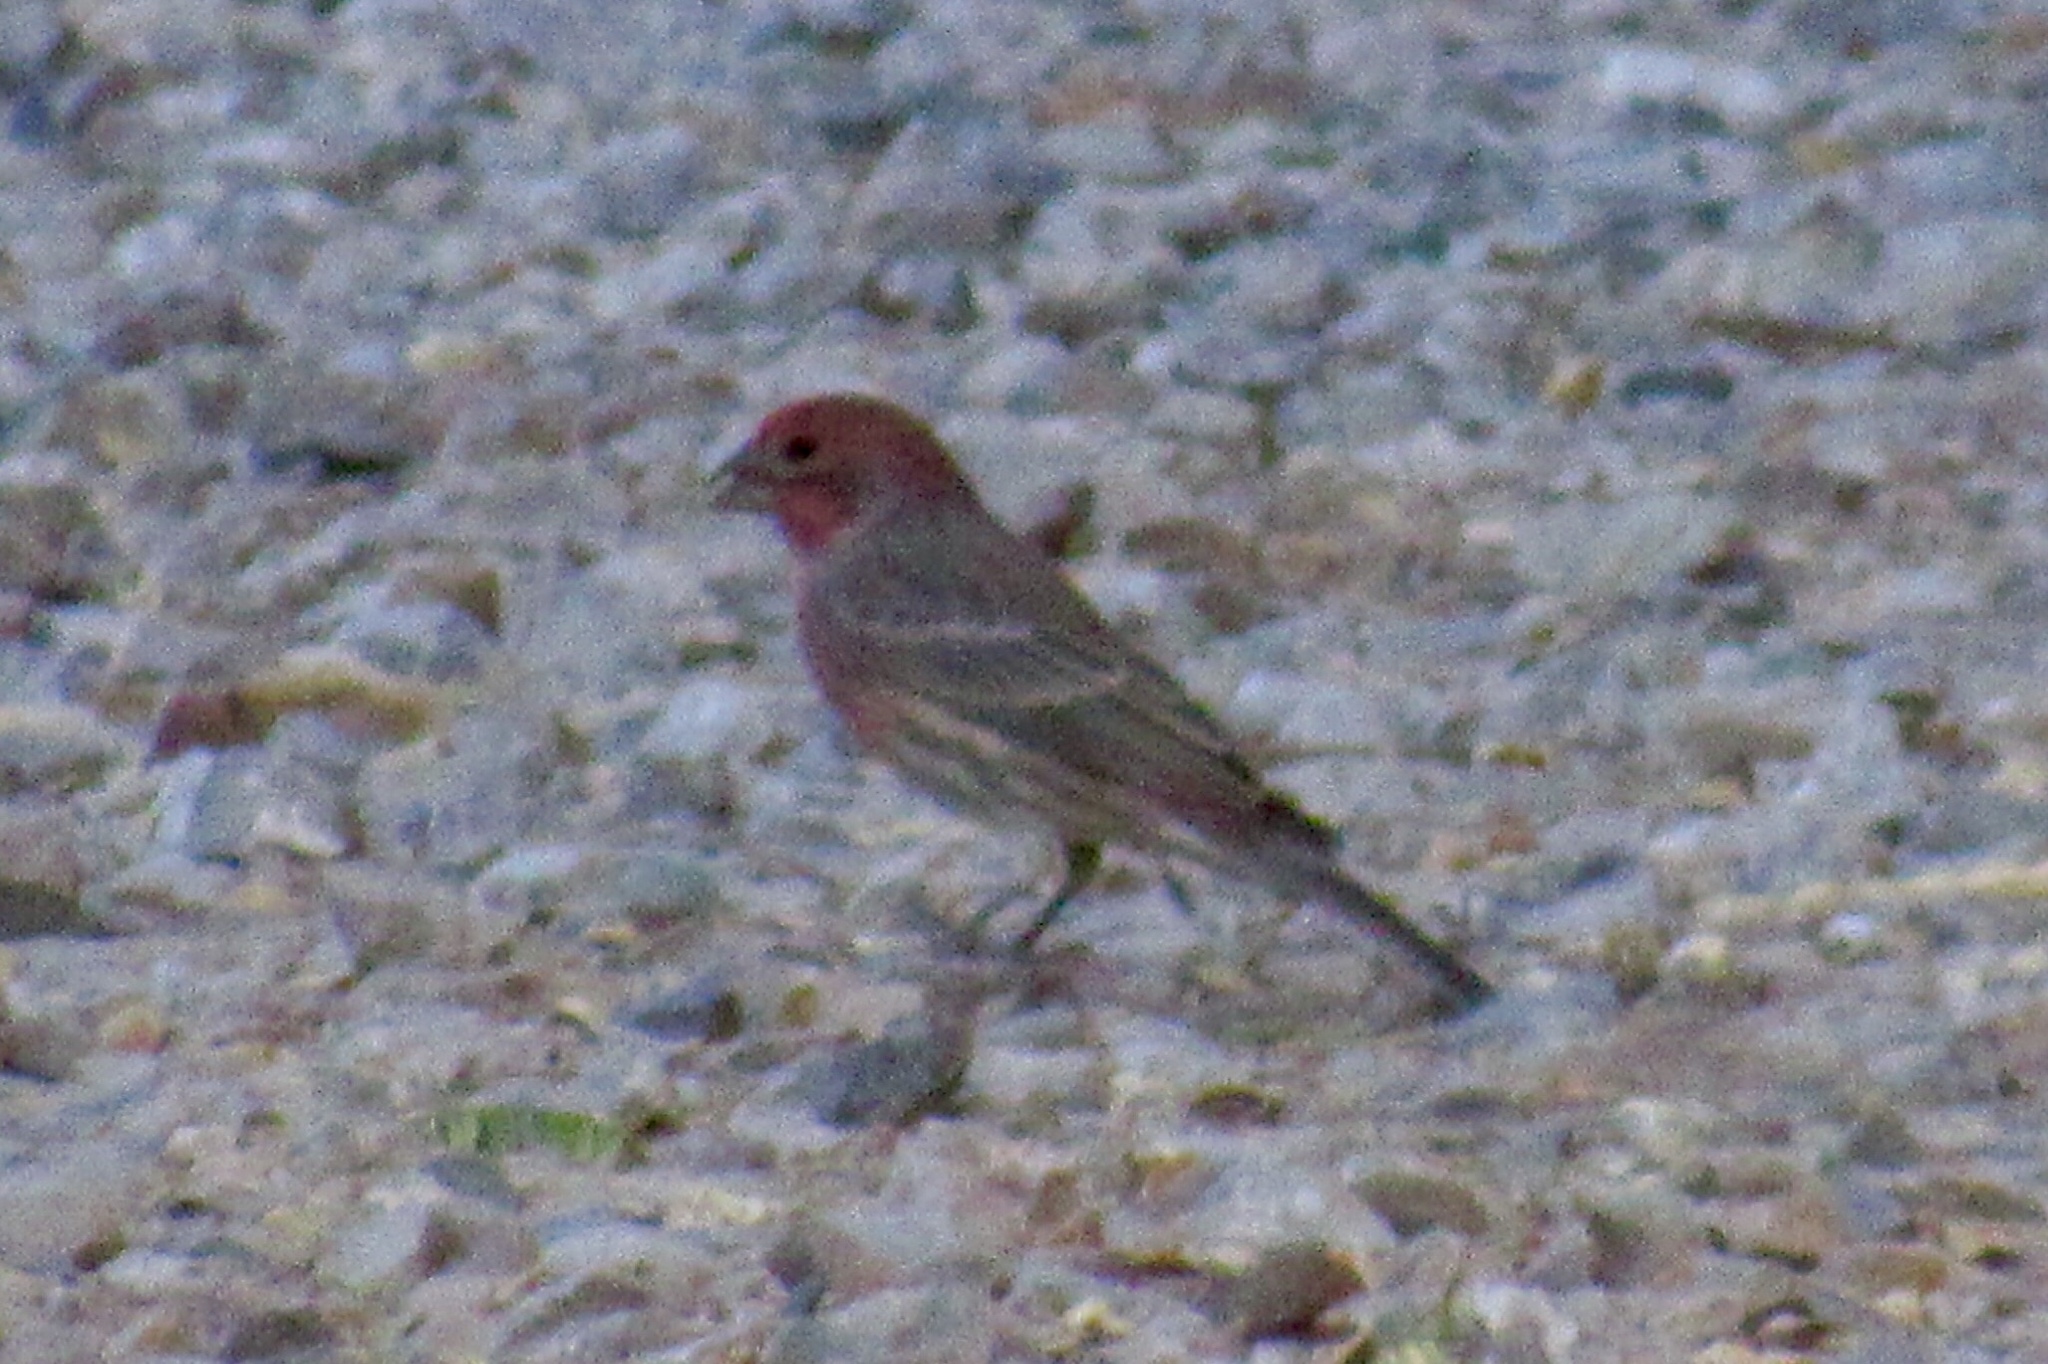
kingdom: Animalia
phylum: Chordata
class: Aves
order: Passeriformes
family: Fringillidae
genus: Haemorhous
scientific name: Haemorhous mexicanus
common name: House finch
